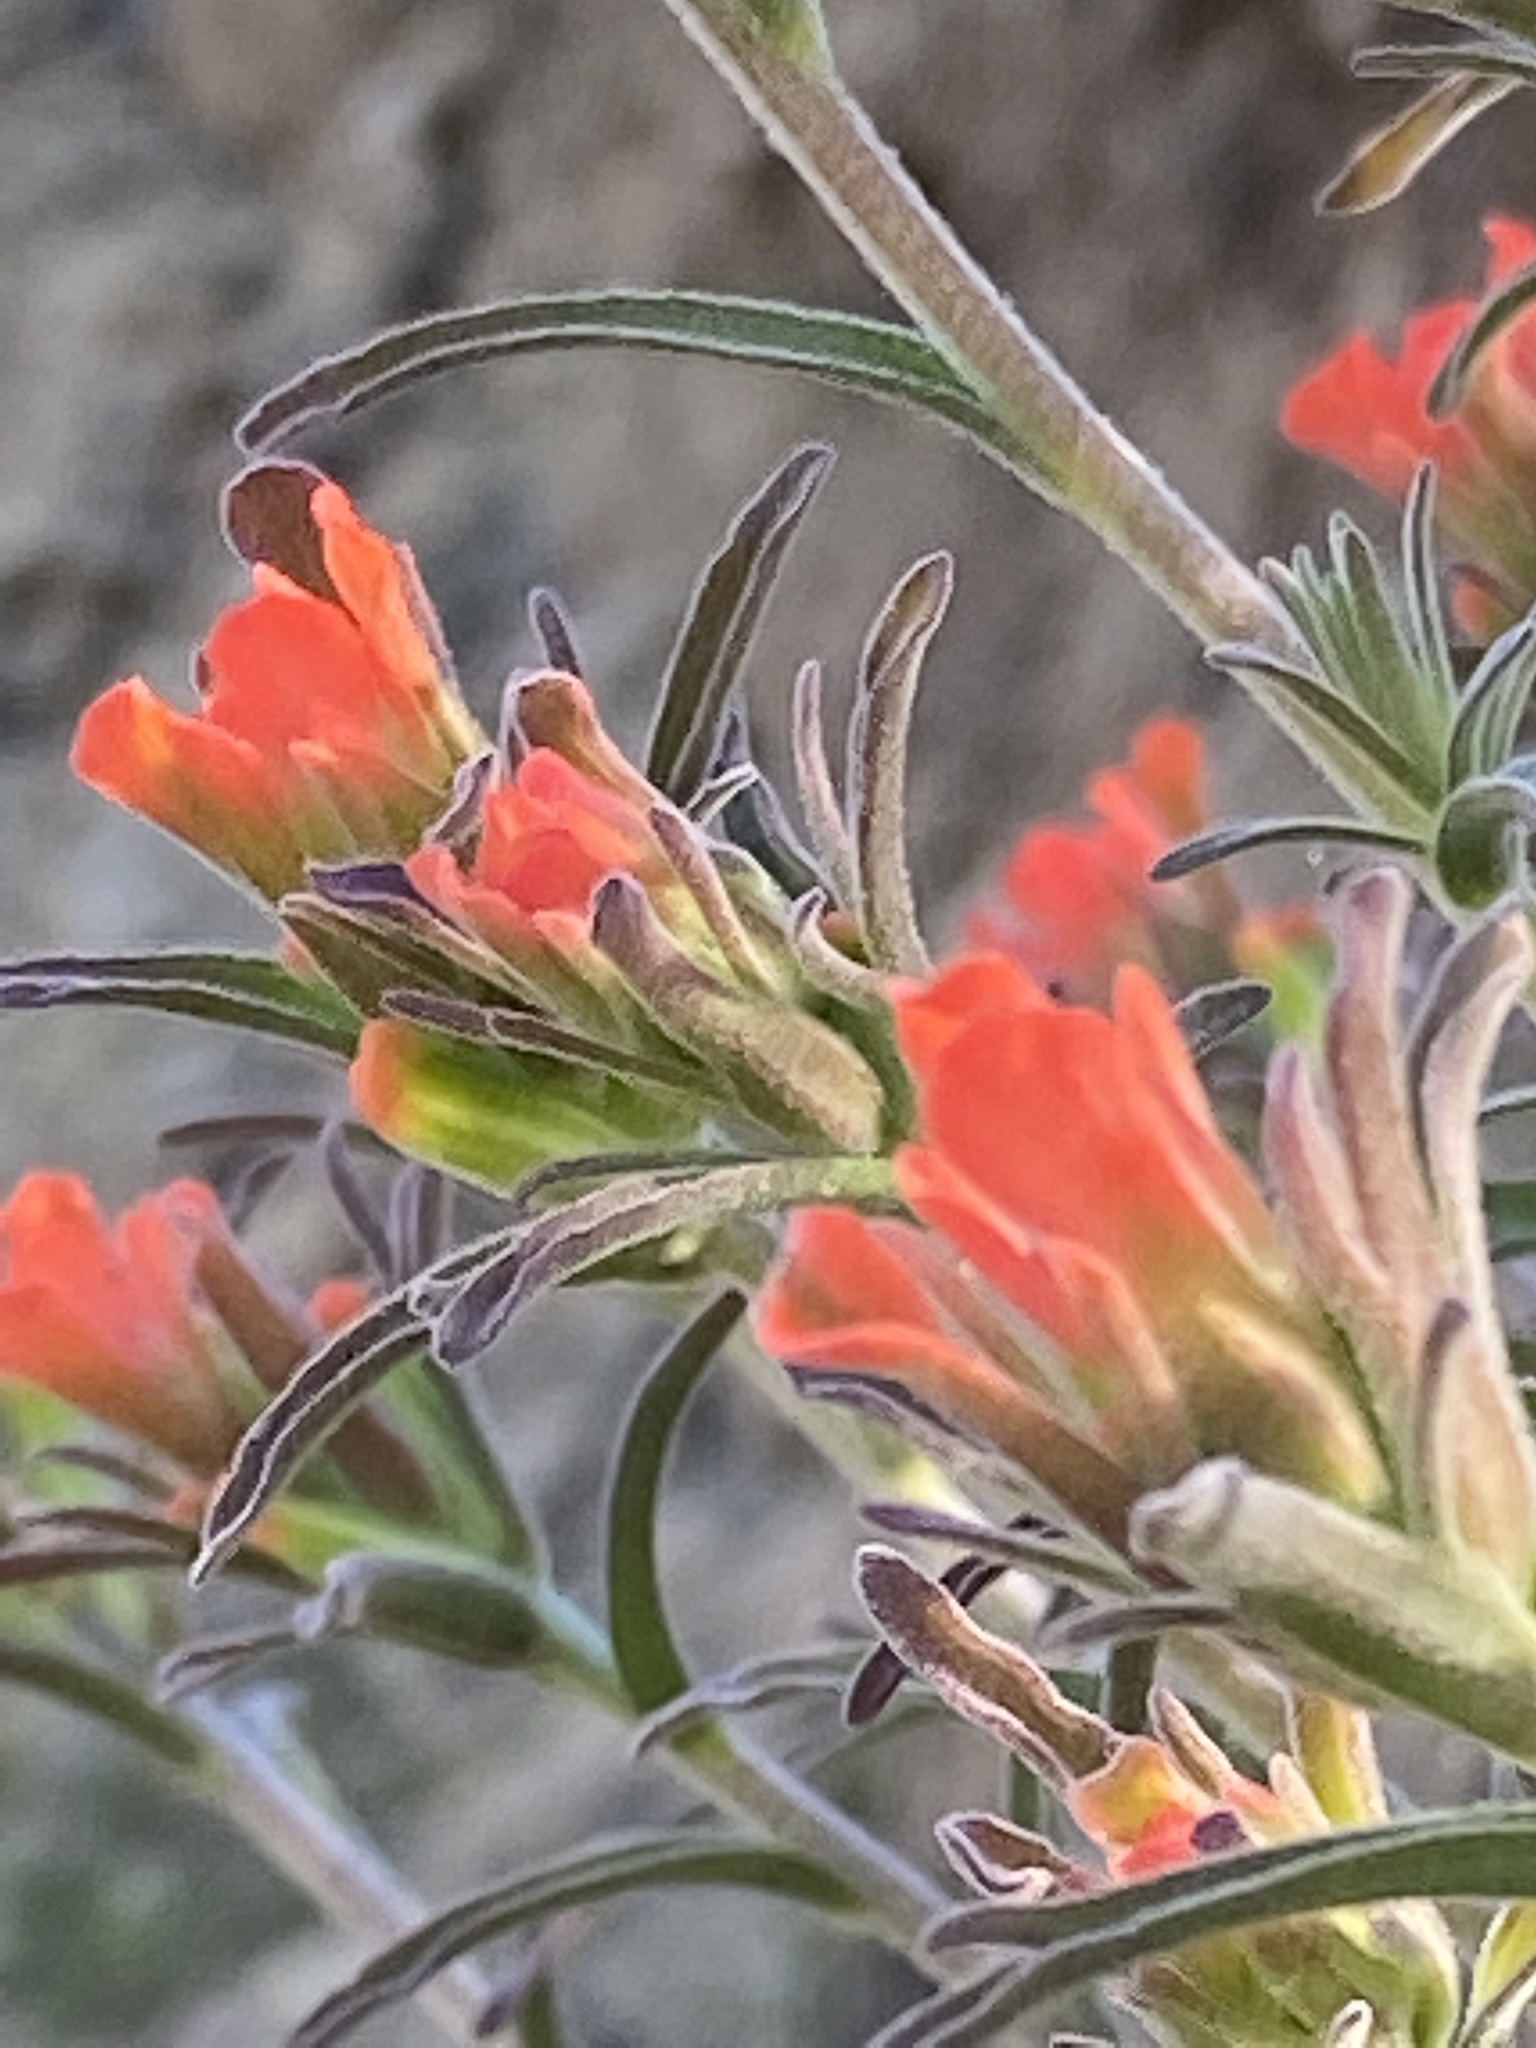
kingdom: Plantae
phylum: Tracheophyta
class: Magnoliopsida
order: Lamiales
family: Orobanchaceae
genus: Castilleja
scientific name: Castilleja foliolosa
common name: Woolly indian paintbrush
